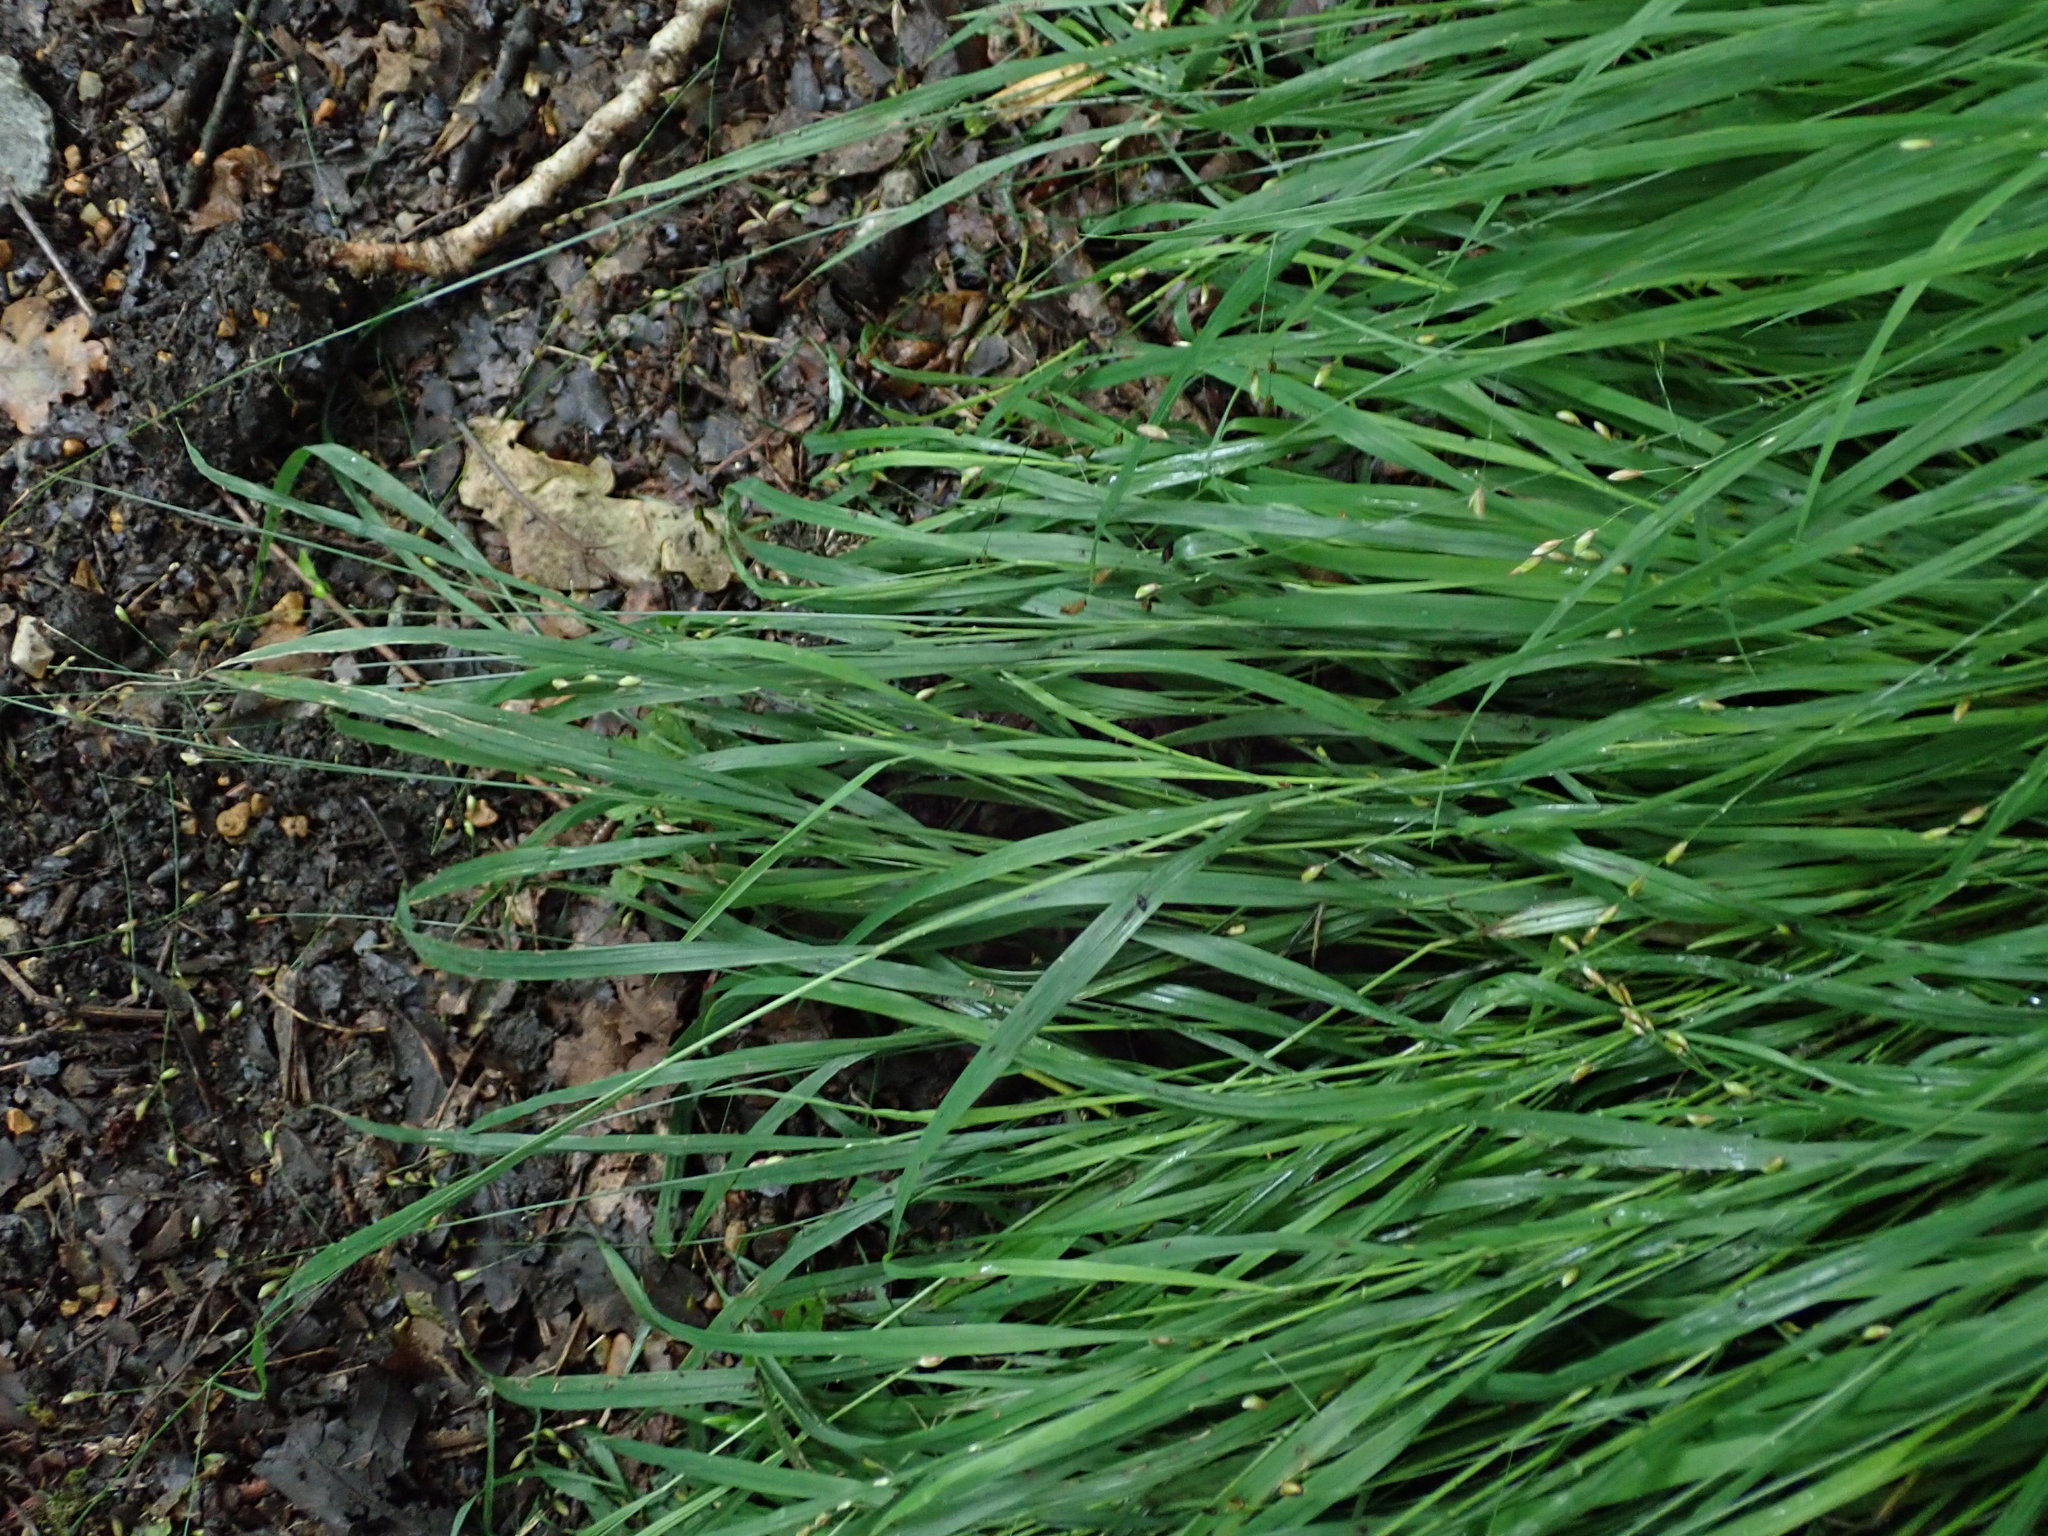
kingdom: Plantae
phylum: Tracheophyta
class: Liliopsida
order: Poales
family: Poaceae
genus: Melica
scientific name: Melica uniflora
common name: Wood melick
